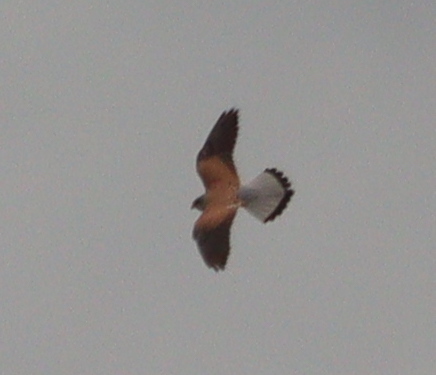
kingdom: Animalia
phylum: Chordata
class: Aves
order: Falconiformes
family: Falconidae
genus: Falco
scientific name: Falco tinnunculus
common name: Common kestrel
